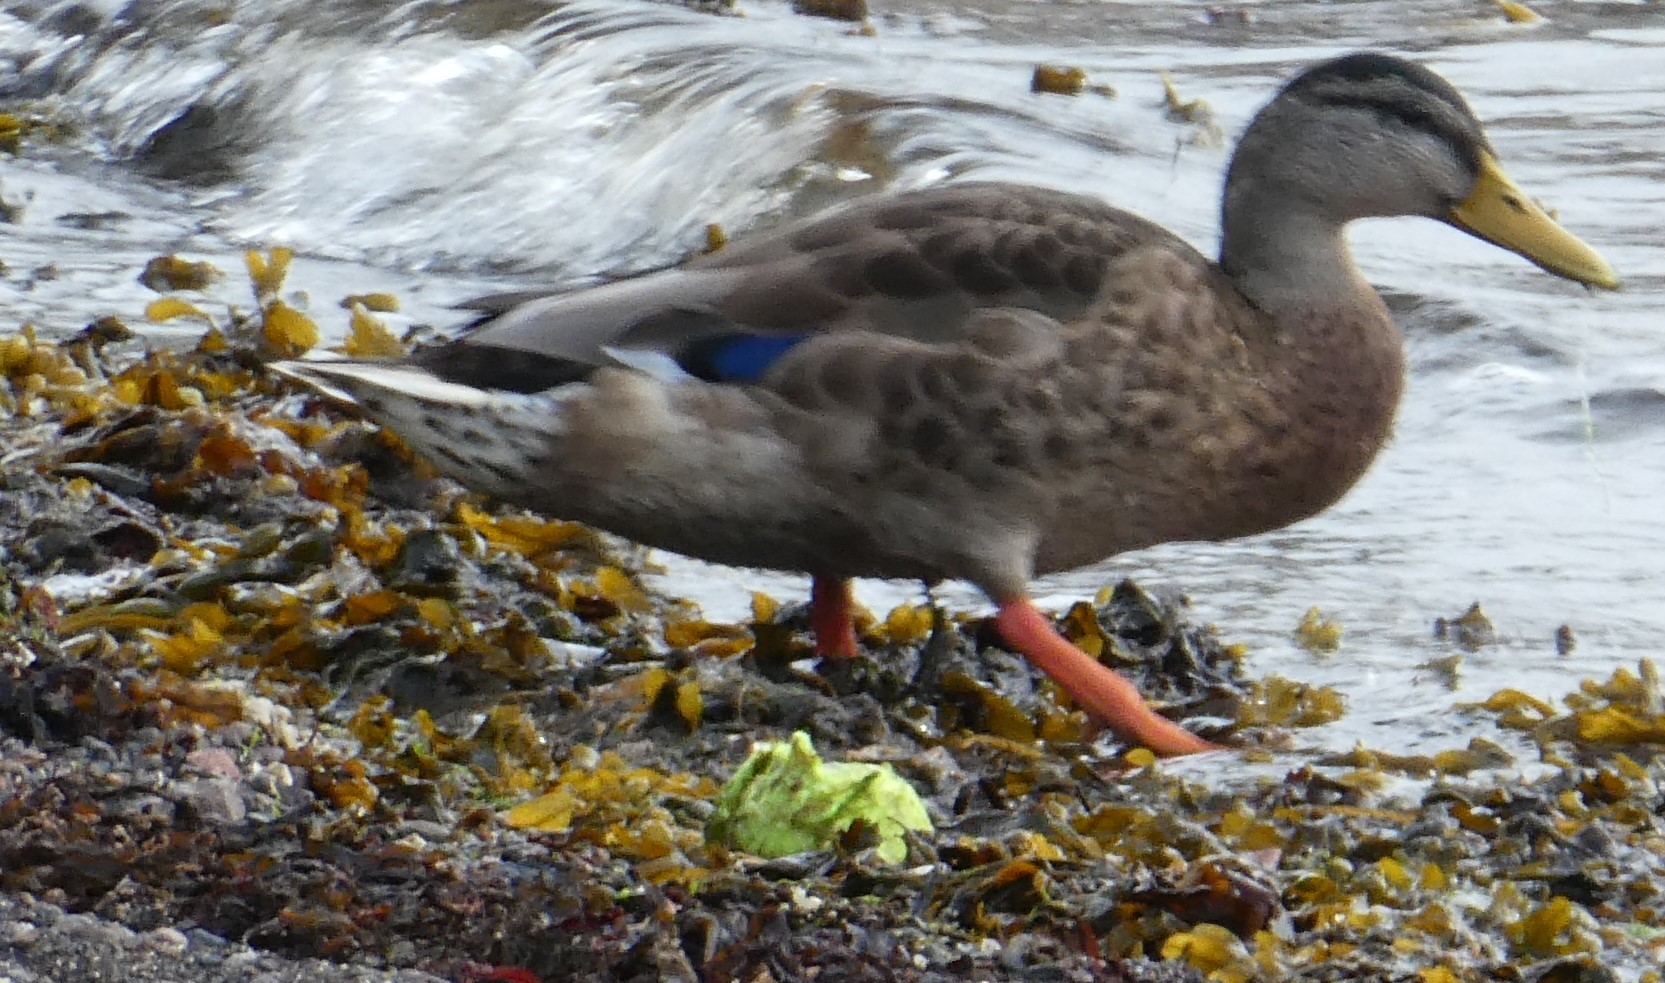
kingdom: Animalia
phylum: Chordata
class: Aves
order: Anseriformes
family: Anatidae
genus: Anas
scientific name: Anas platyrhynchos
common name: Mallard
